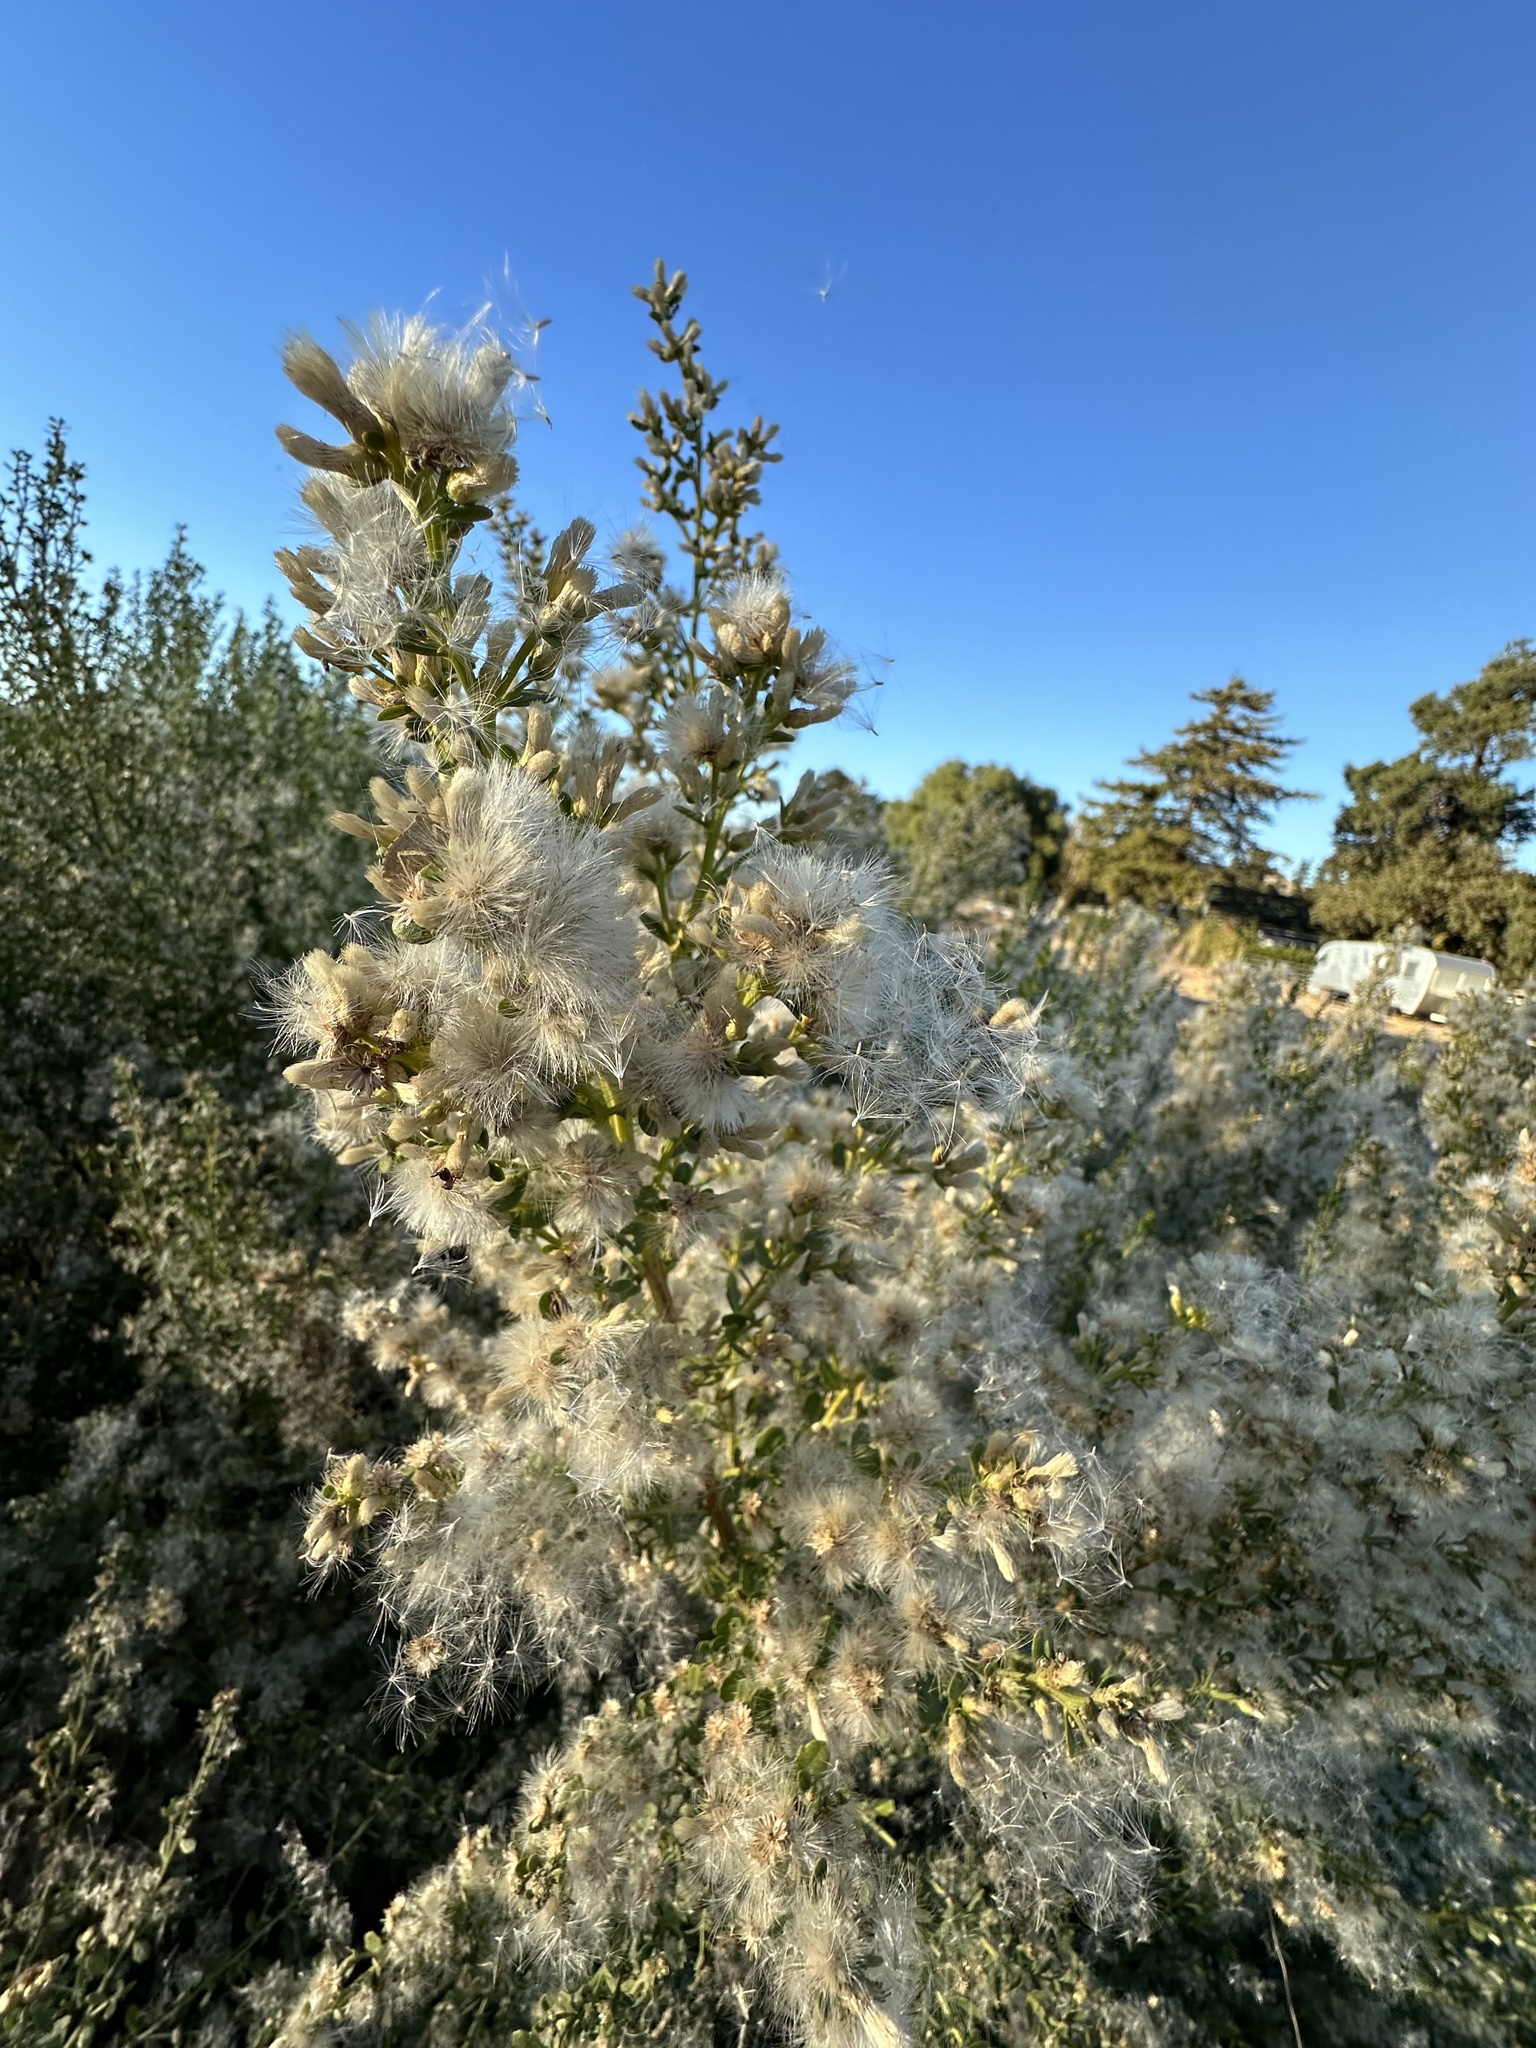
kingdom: Plantae
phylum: Tracheophyta
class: Magnoliopsida
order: Asterales
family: Asteraceae
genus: Baccharis
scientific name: Baccharis pilularis
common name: Coyotebrush
